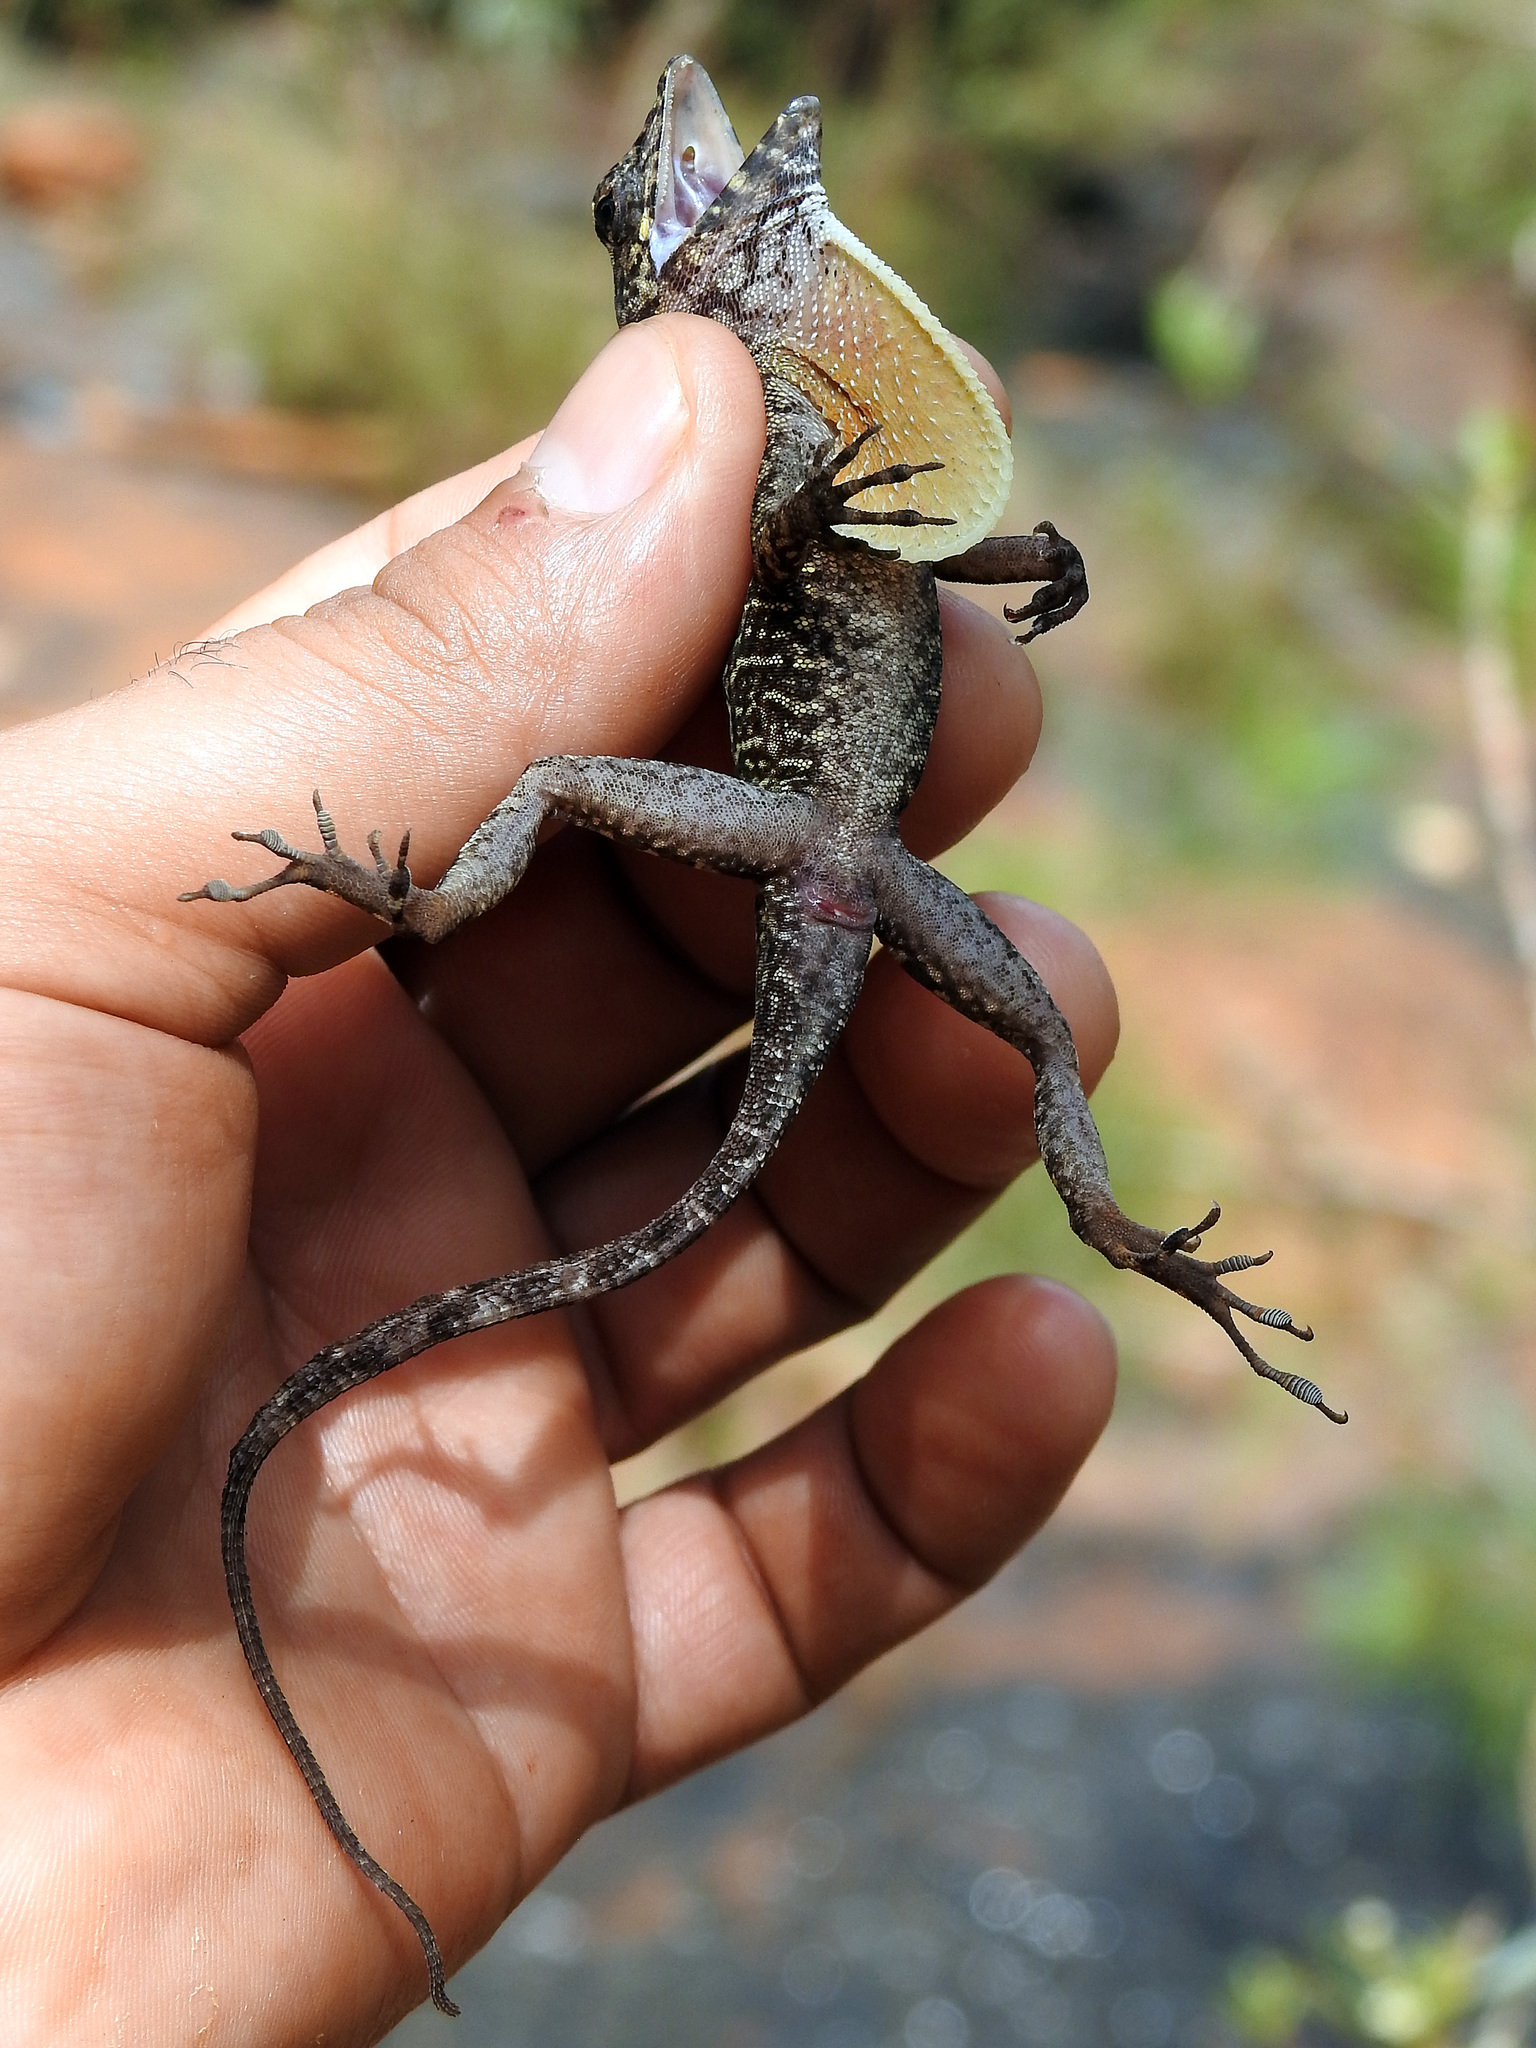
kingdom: Animalia
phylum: Chordata
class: Squamata
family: Dactyloidae
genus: Anolis
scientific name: Anolis allogus
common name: Bueycito anole
